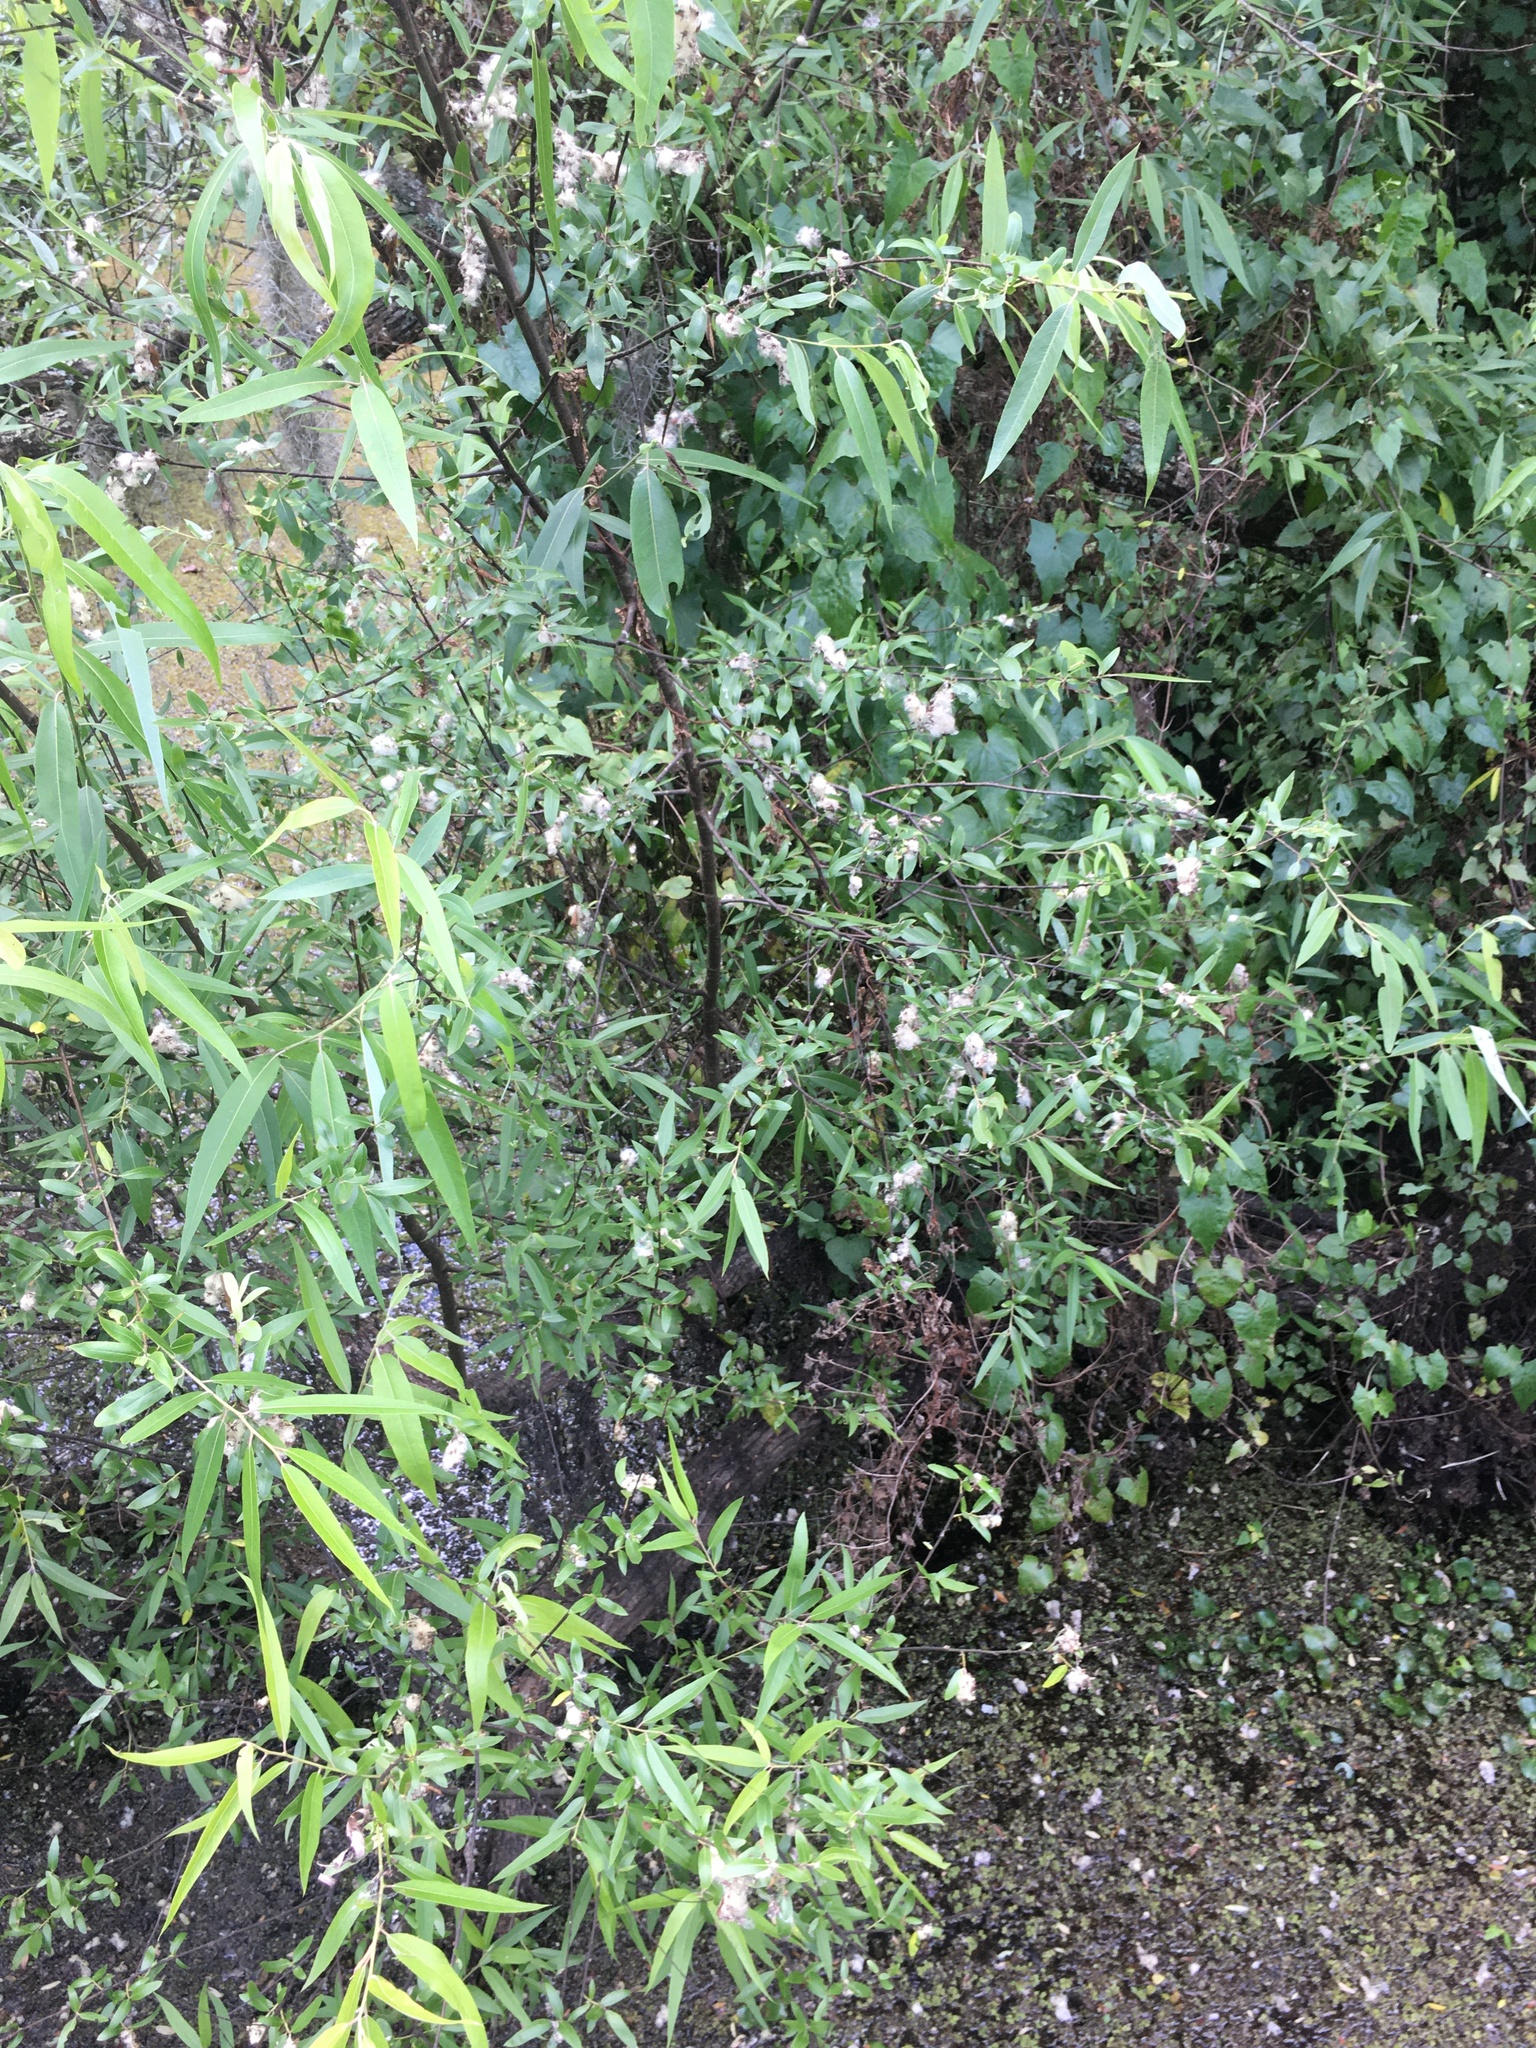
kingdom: Plantae
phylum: Tracheophyta
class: Magnoliopsida
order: Malpighiales
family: Salicaceae
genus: Salix
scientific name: Salix caroliniana
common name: Carolina willow
